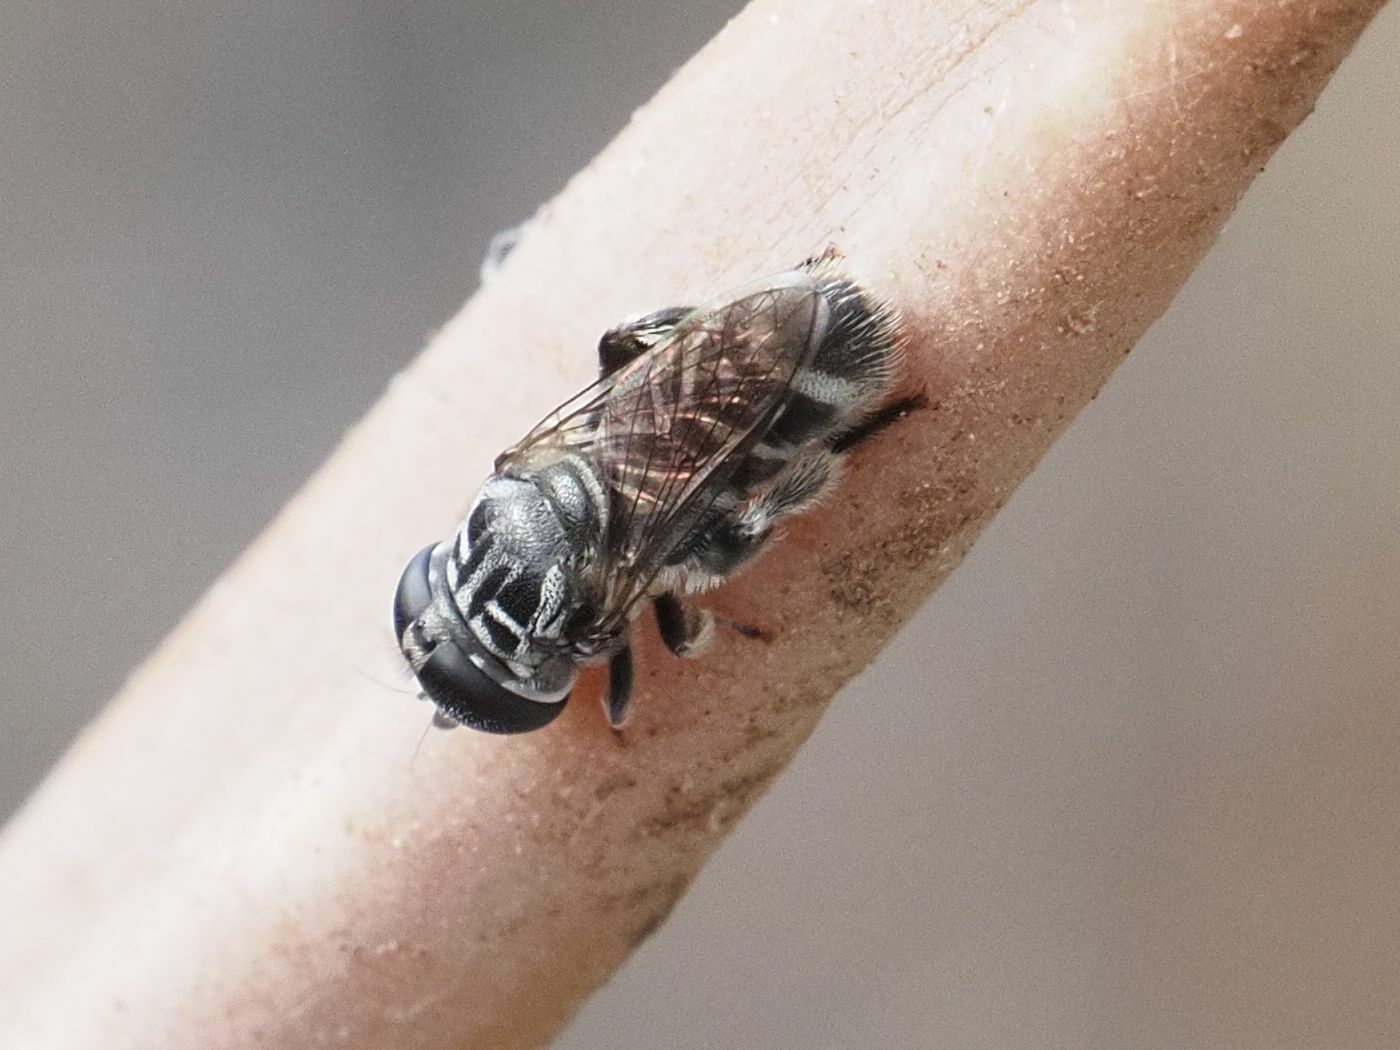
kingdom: Animalia
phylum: Arthropoda
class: Insecta
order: Diptera
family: Syrphidae
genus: Eumerus
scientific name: Eumerus obliquus
